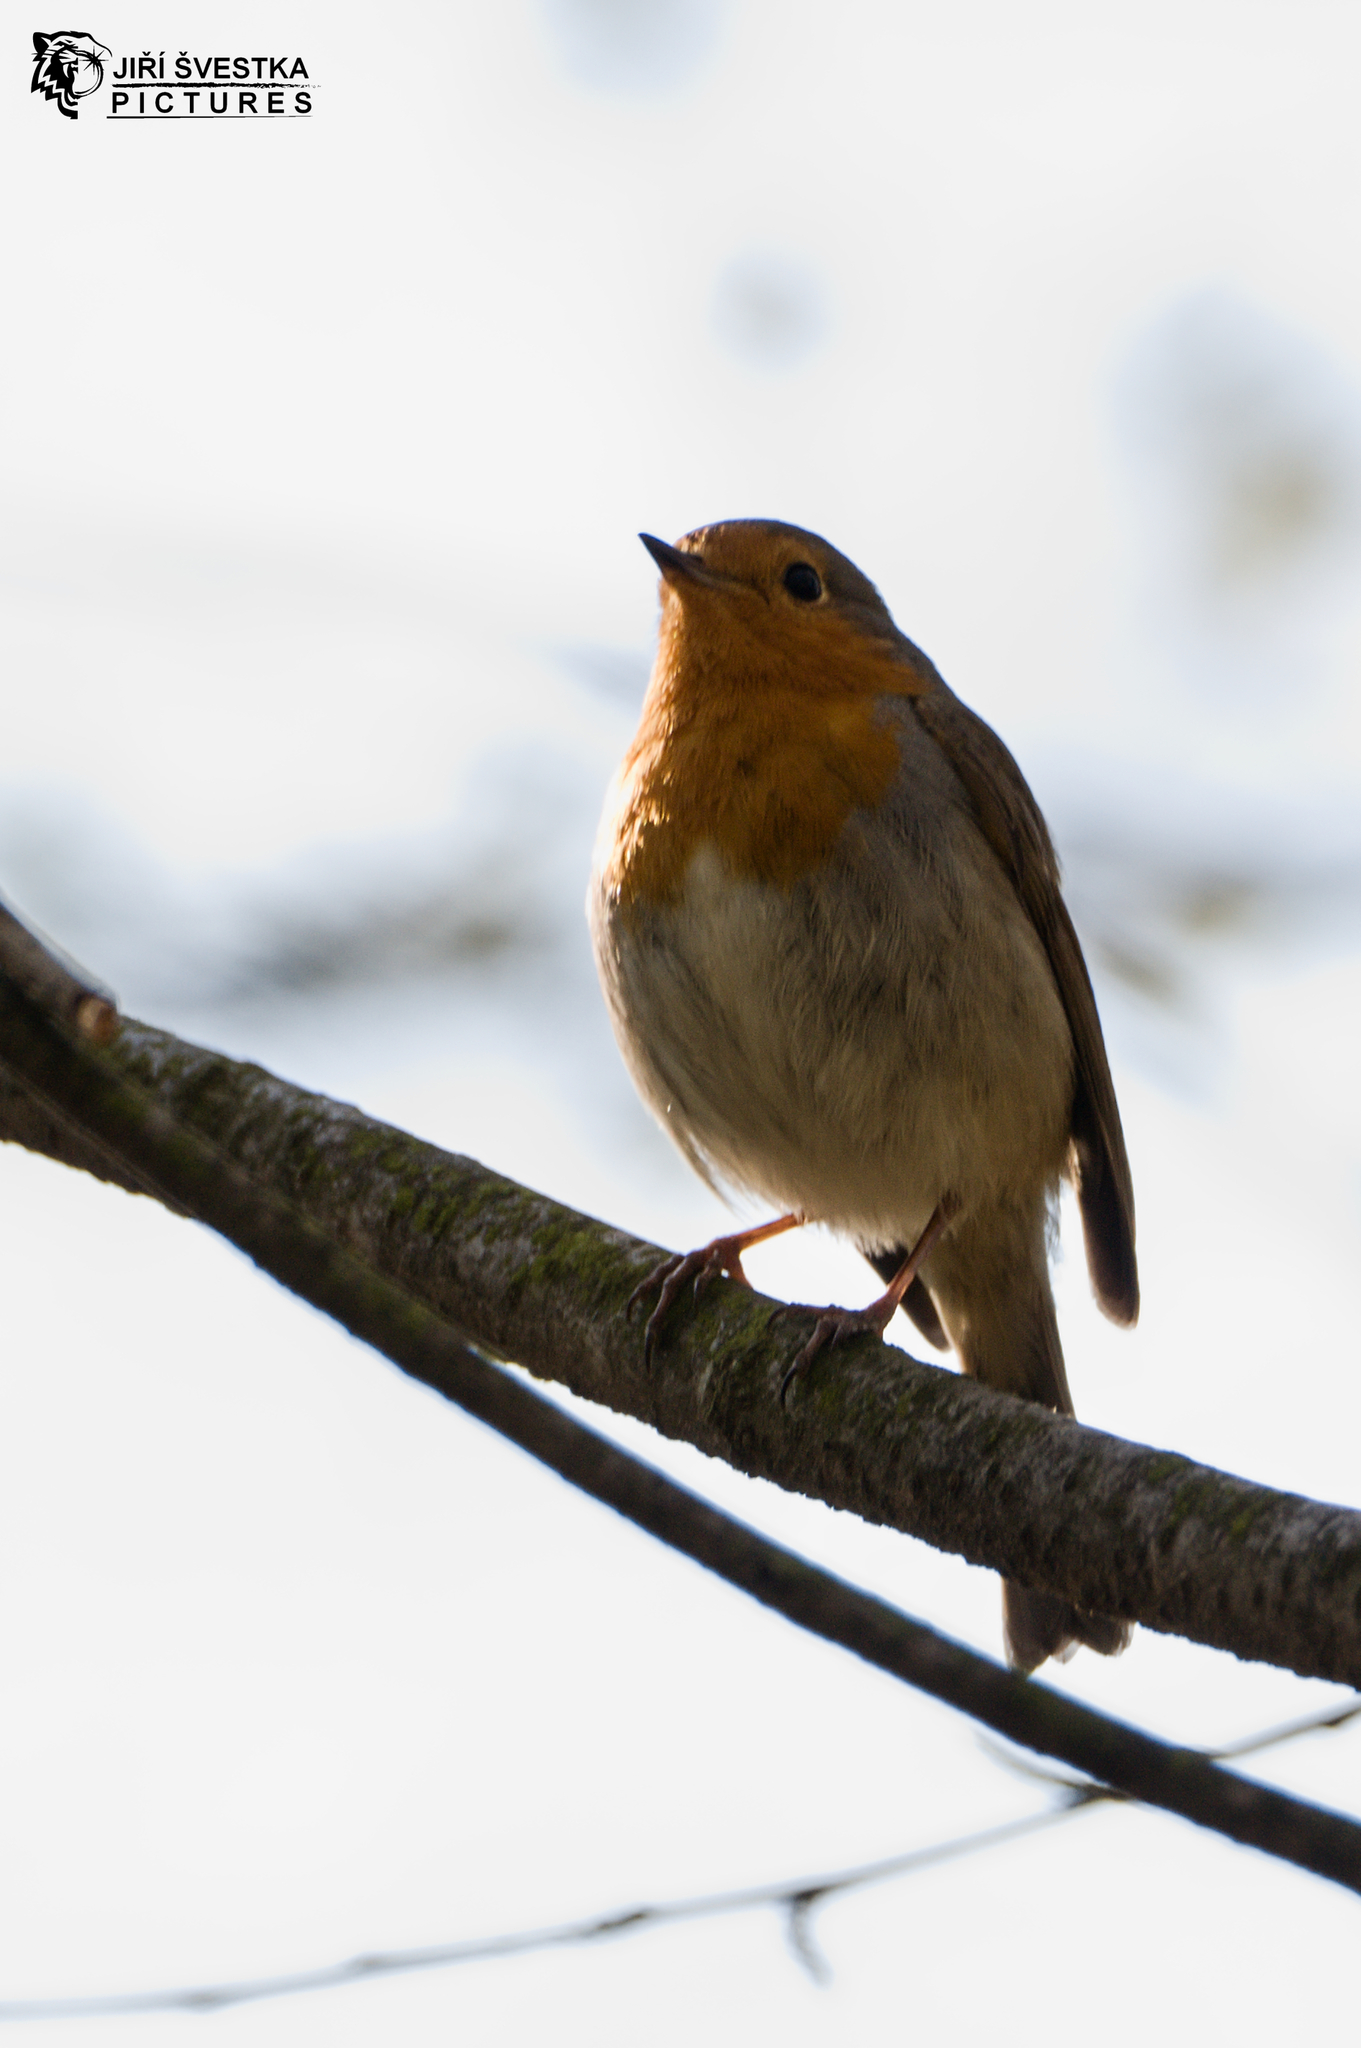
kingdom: Animalia
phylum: Chordata
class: Aves
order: Passeriformes
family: Muscicapidae
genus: Erithacus
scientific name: Erithacus rubecula
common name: European robin
